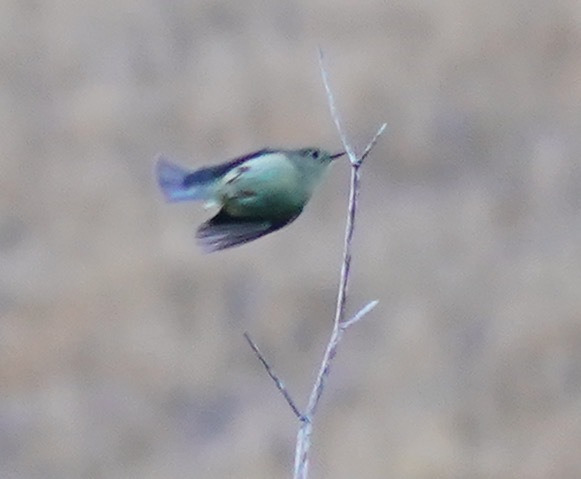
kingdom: Animalia
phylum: Chordata
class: Aves
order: Passeriformes
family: Regulidae
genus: Regulus
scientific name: Regulus calendula
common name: Ruby-crowned kinglet
